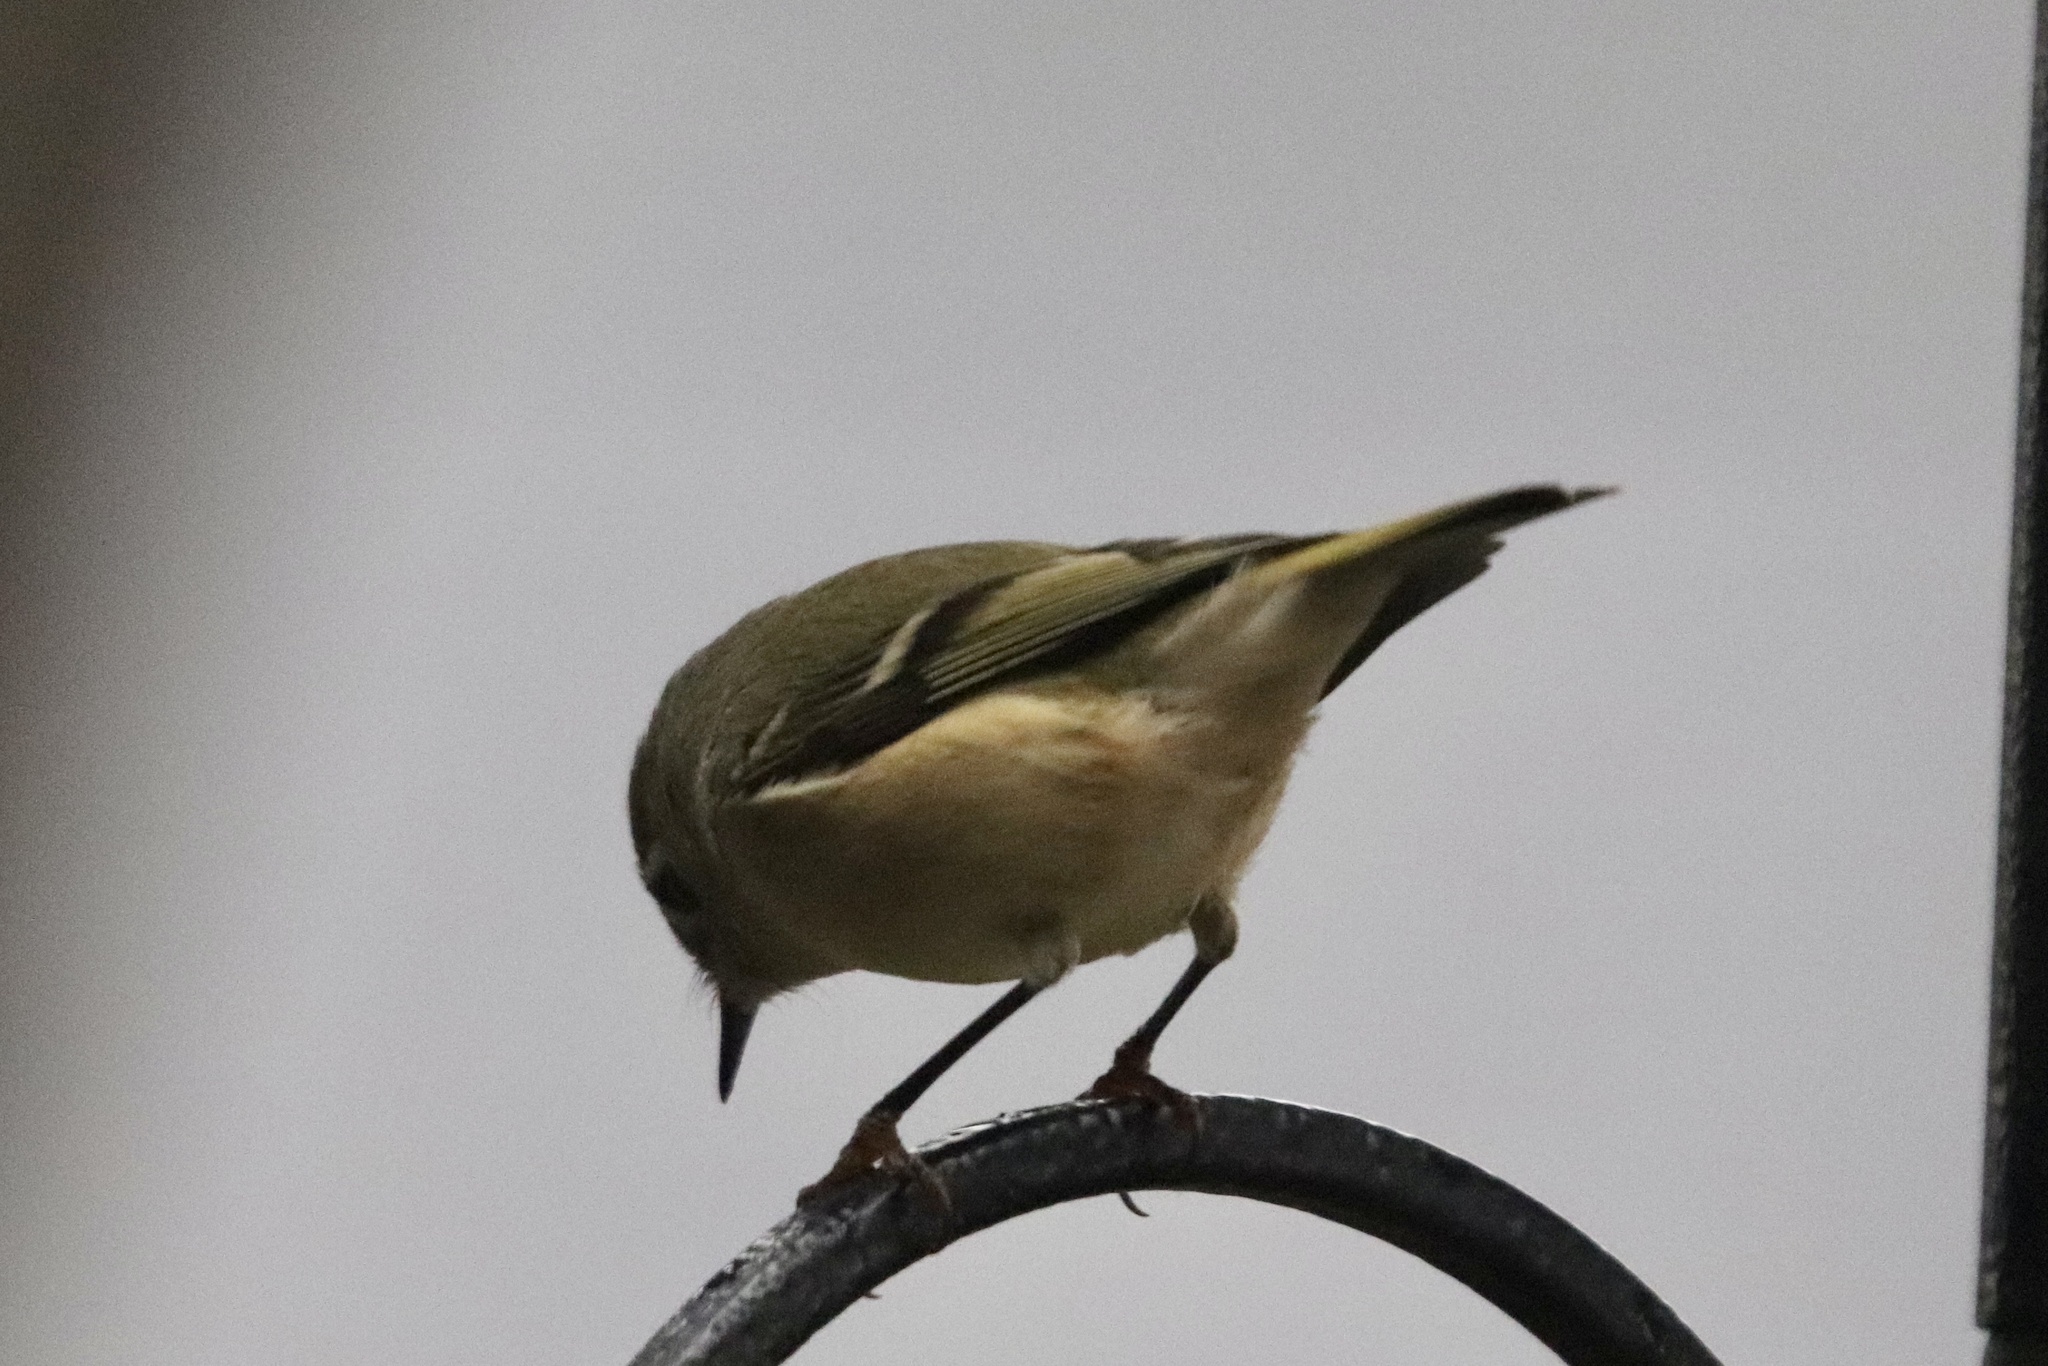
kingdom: Animalia
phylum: Chordata
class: Aves
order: Passeriformes
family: Regulidae
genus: Regulus
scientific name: Regulus calendula
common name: Ruby-crowned kinglet
